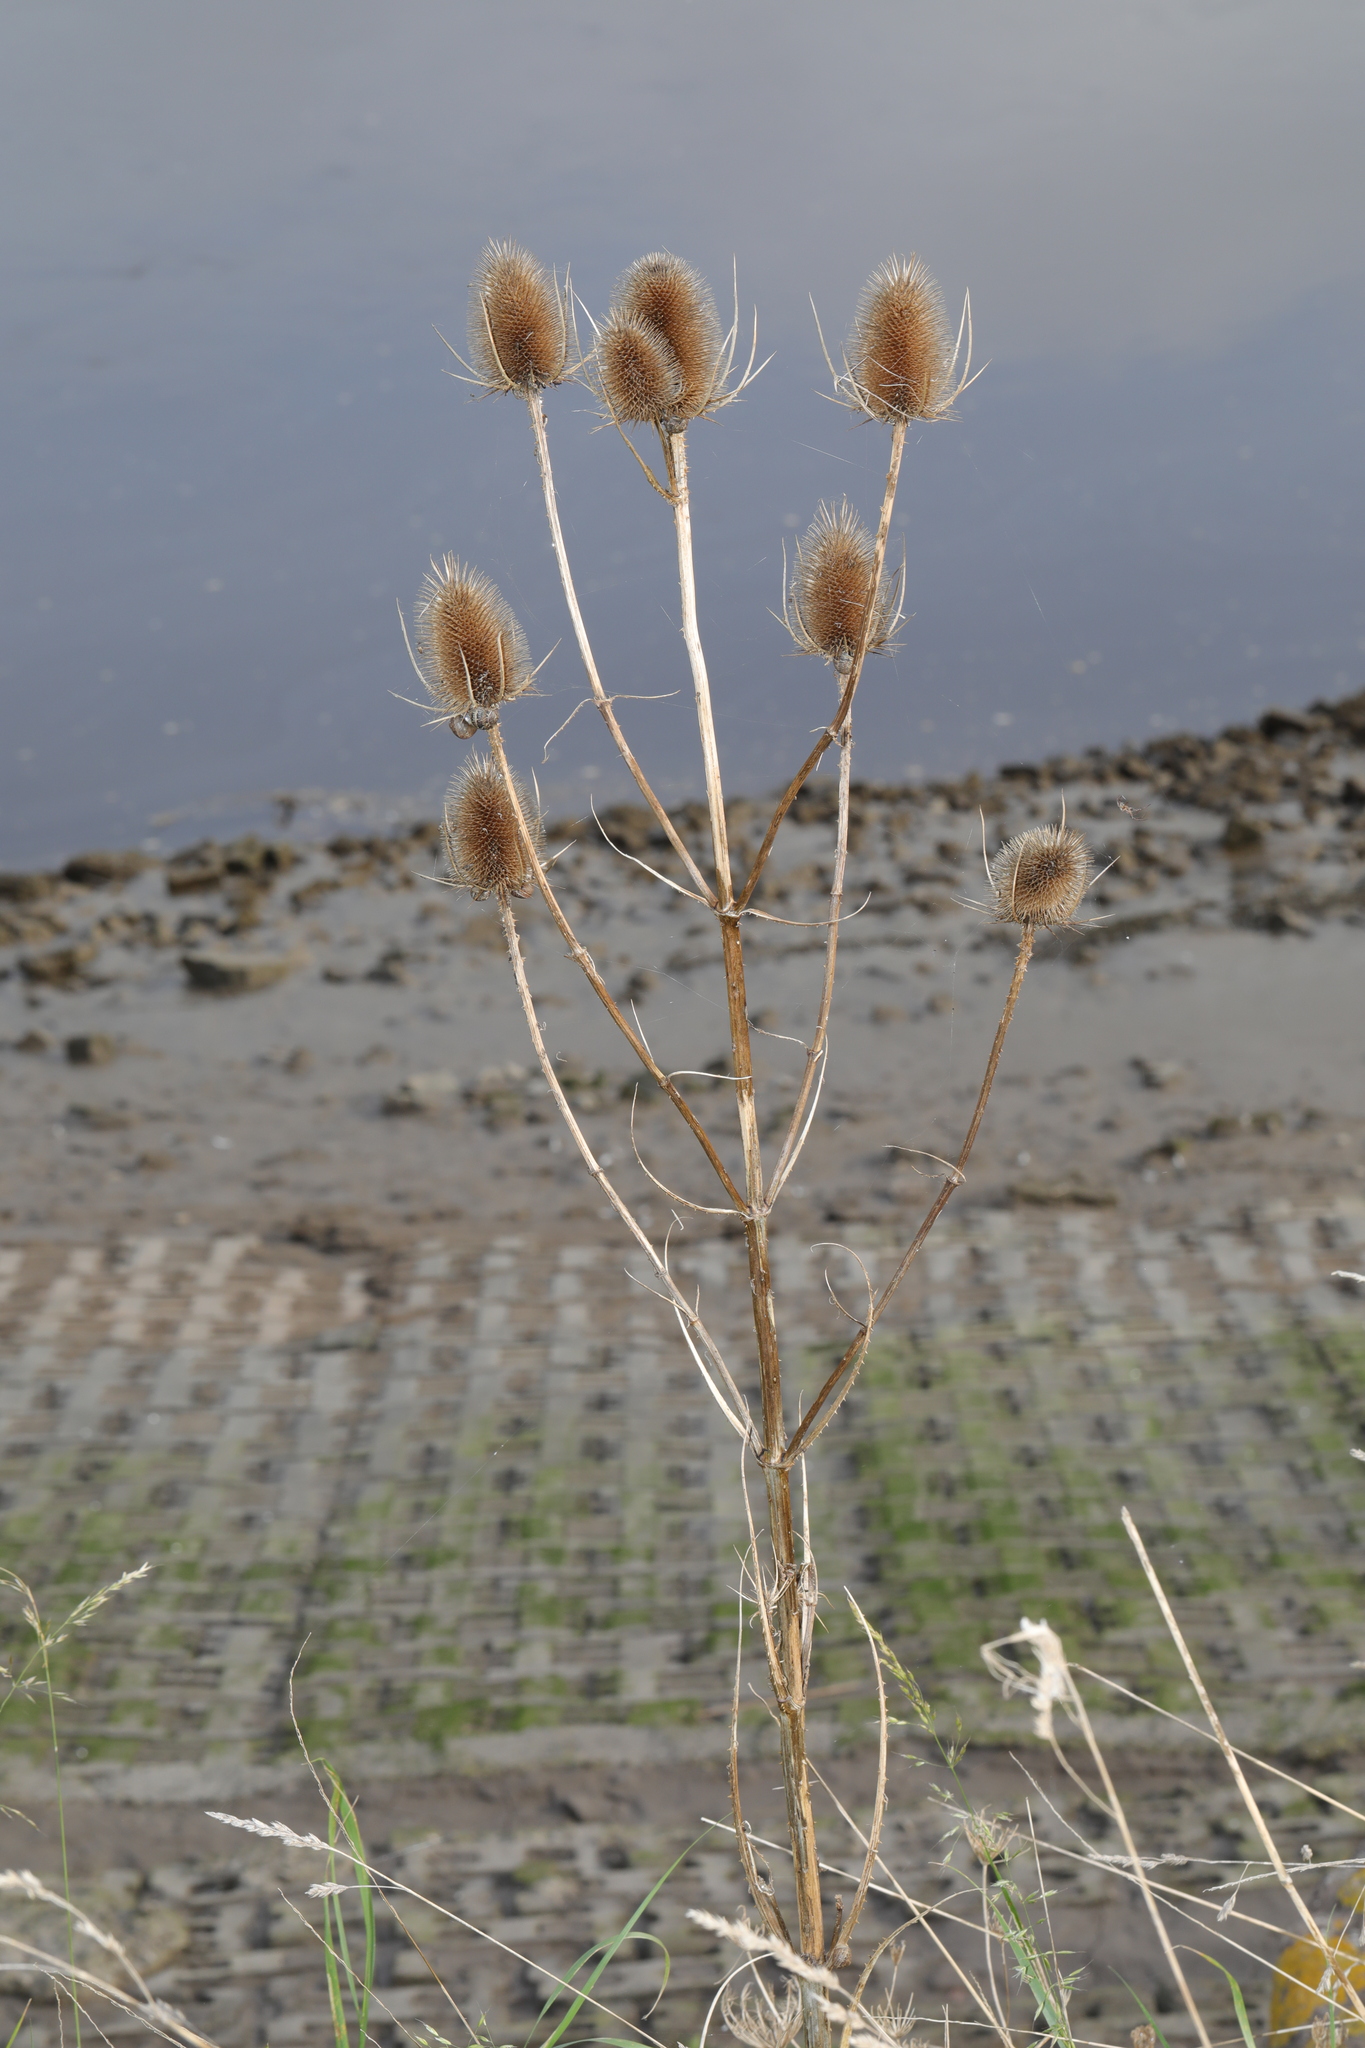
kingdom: Plantae
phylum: Tracheophyta
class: Magnoliopsida
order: Dipsacales
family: Caprifoliaceae
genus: Dipsacus
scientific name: Dipsacus fullonum
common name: Teasel
